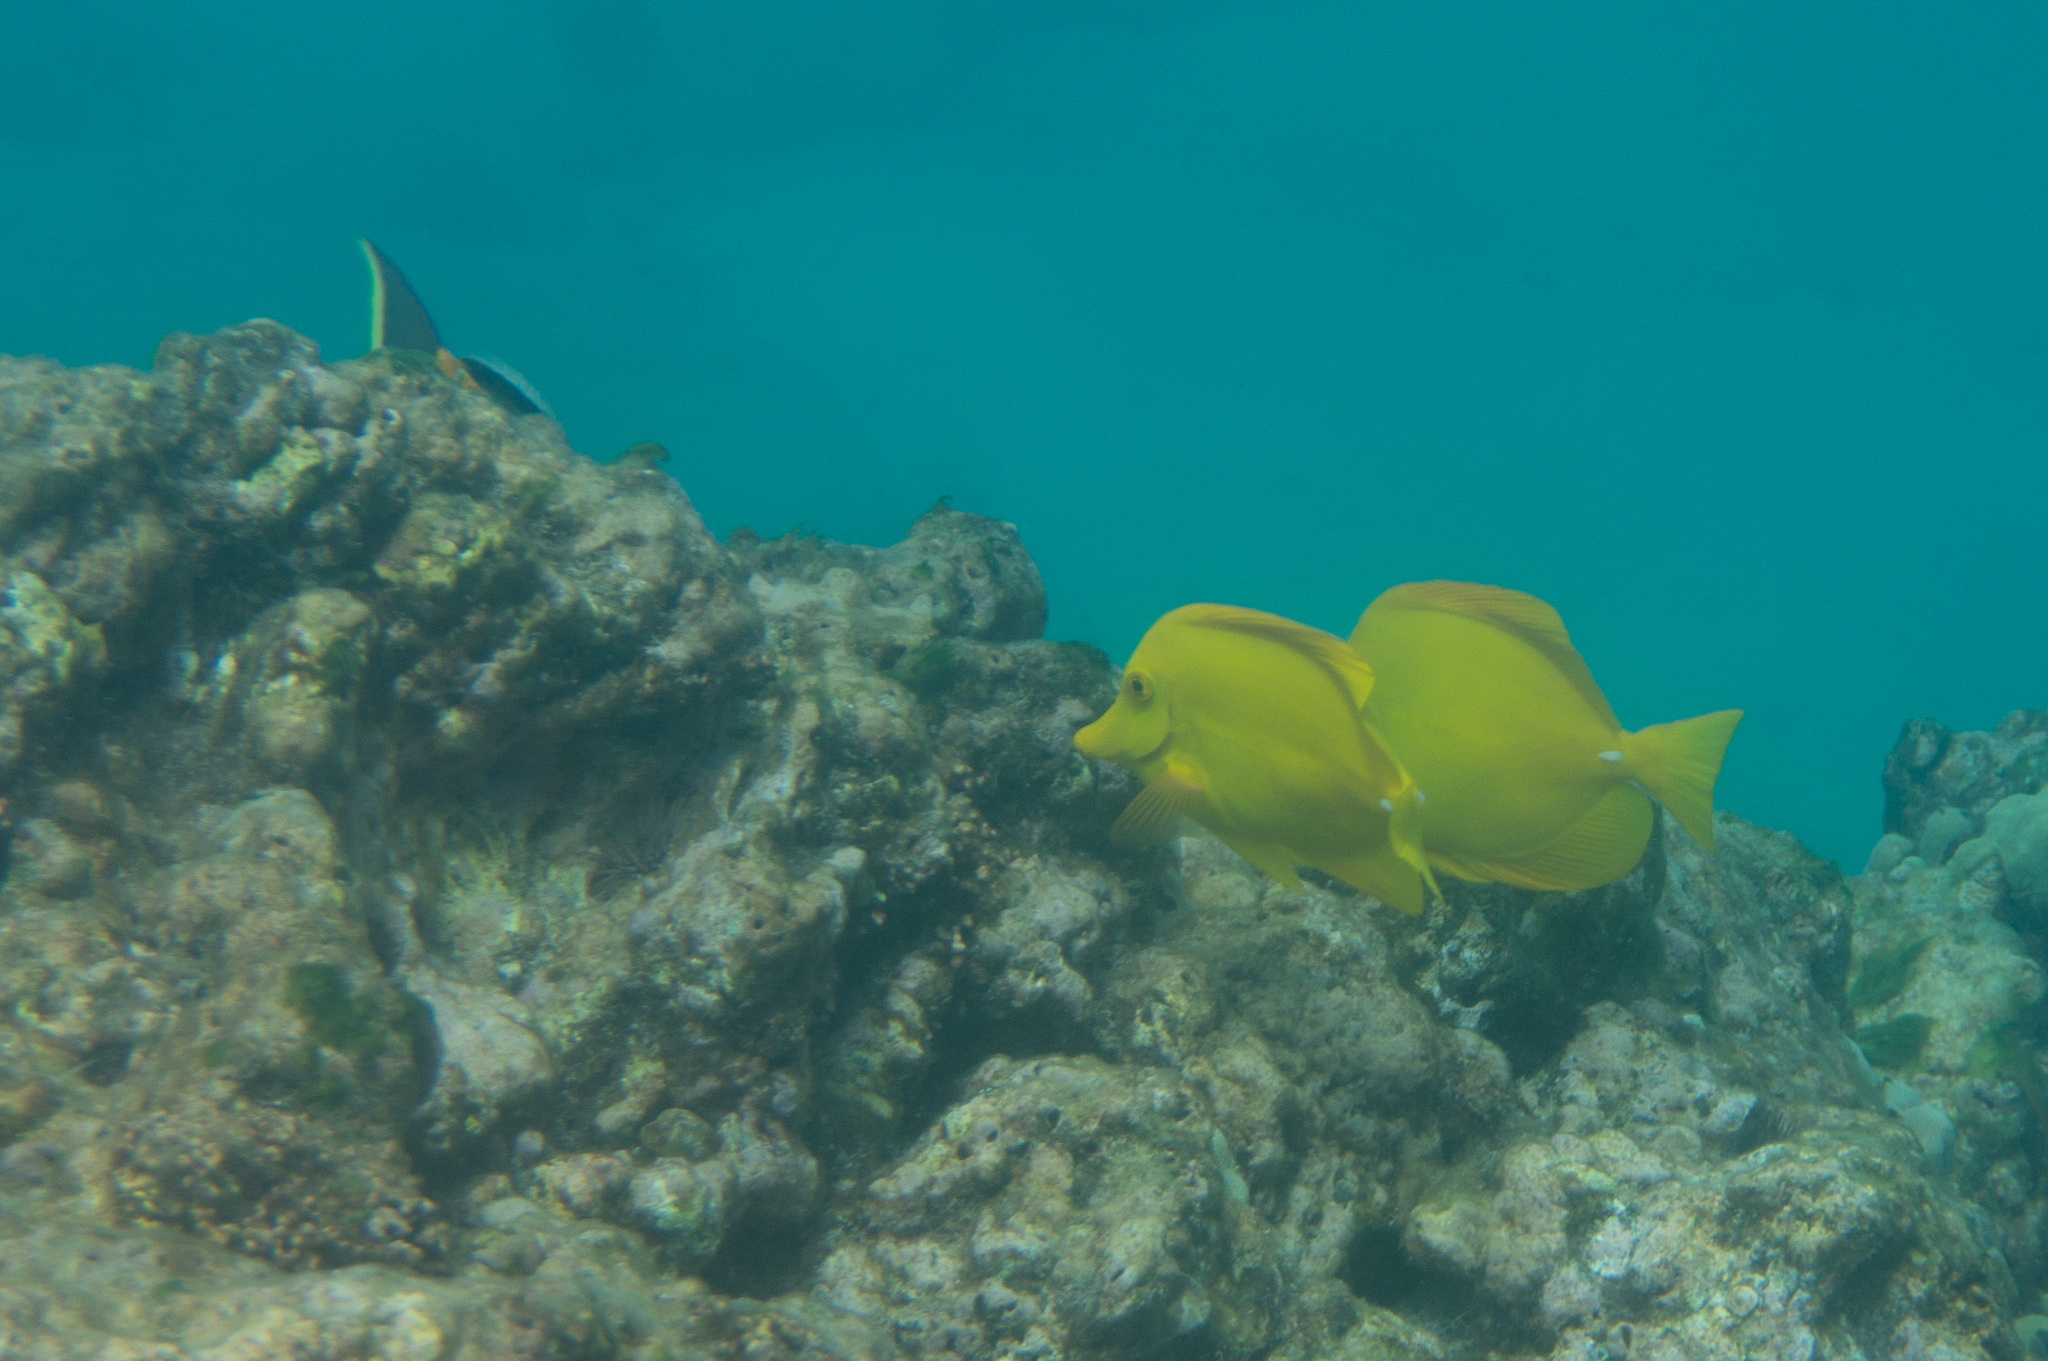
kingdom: Animalia
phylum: Chordata
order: Perciformes
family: Acanthuridae
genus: Zebrasoma
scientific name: Zebrasoma flavescens
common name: Yellow tang
